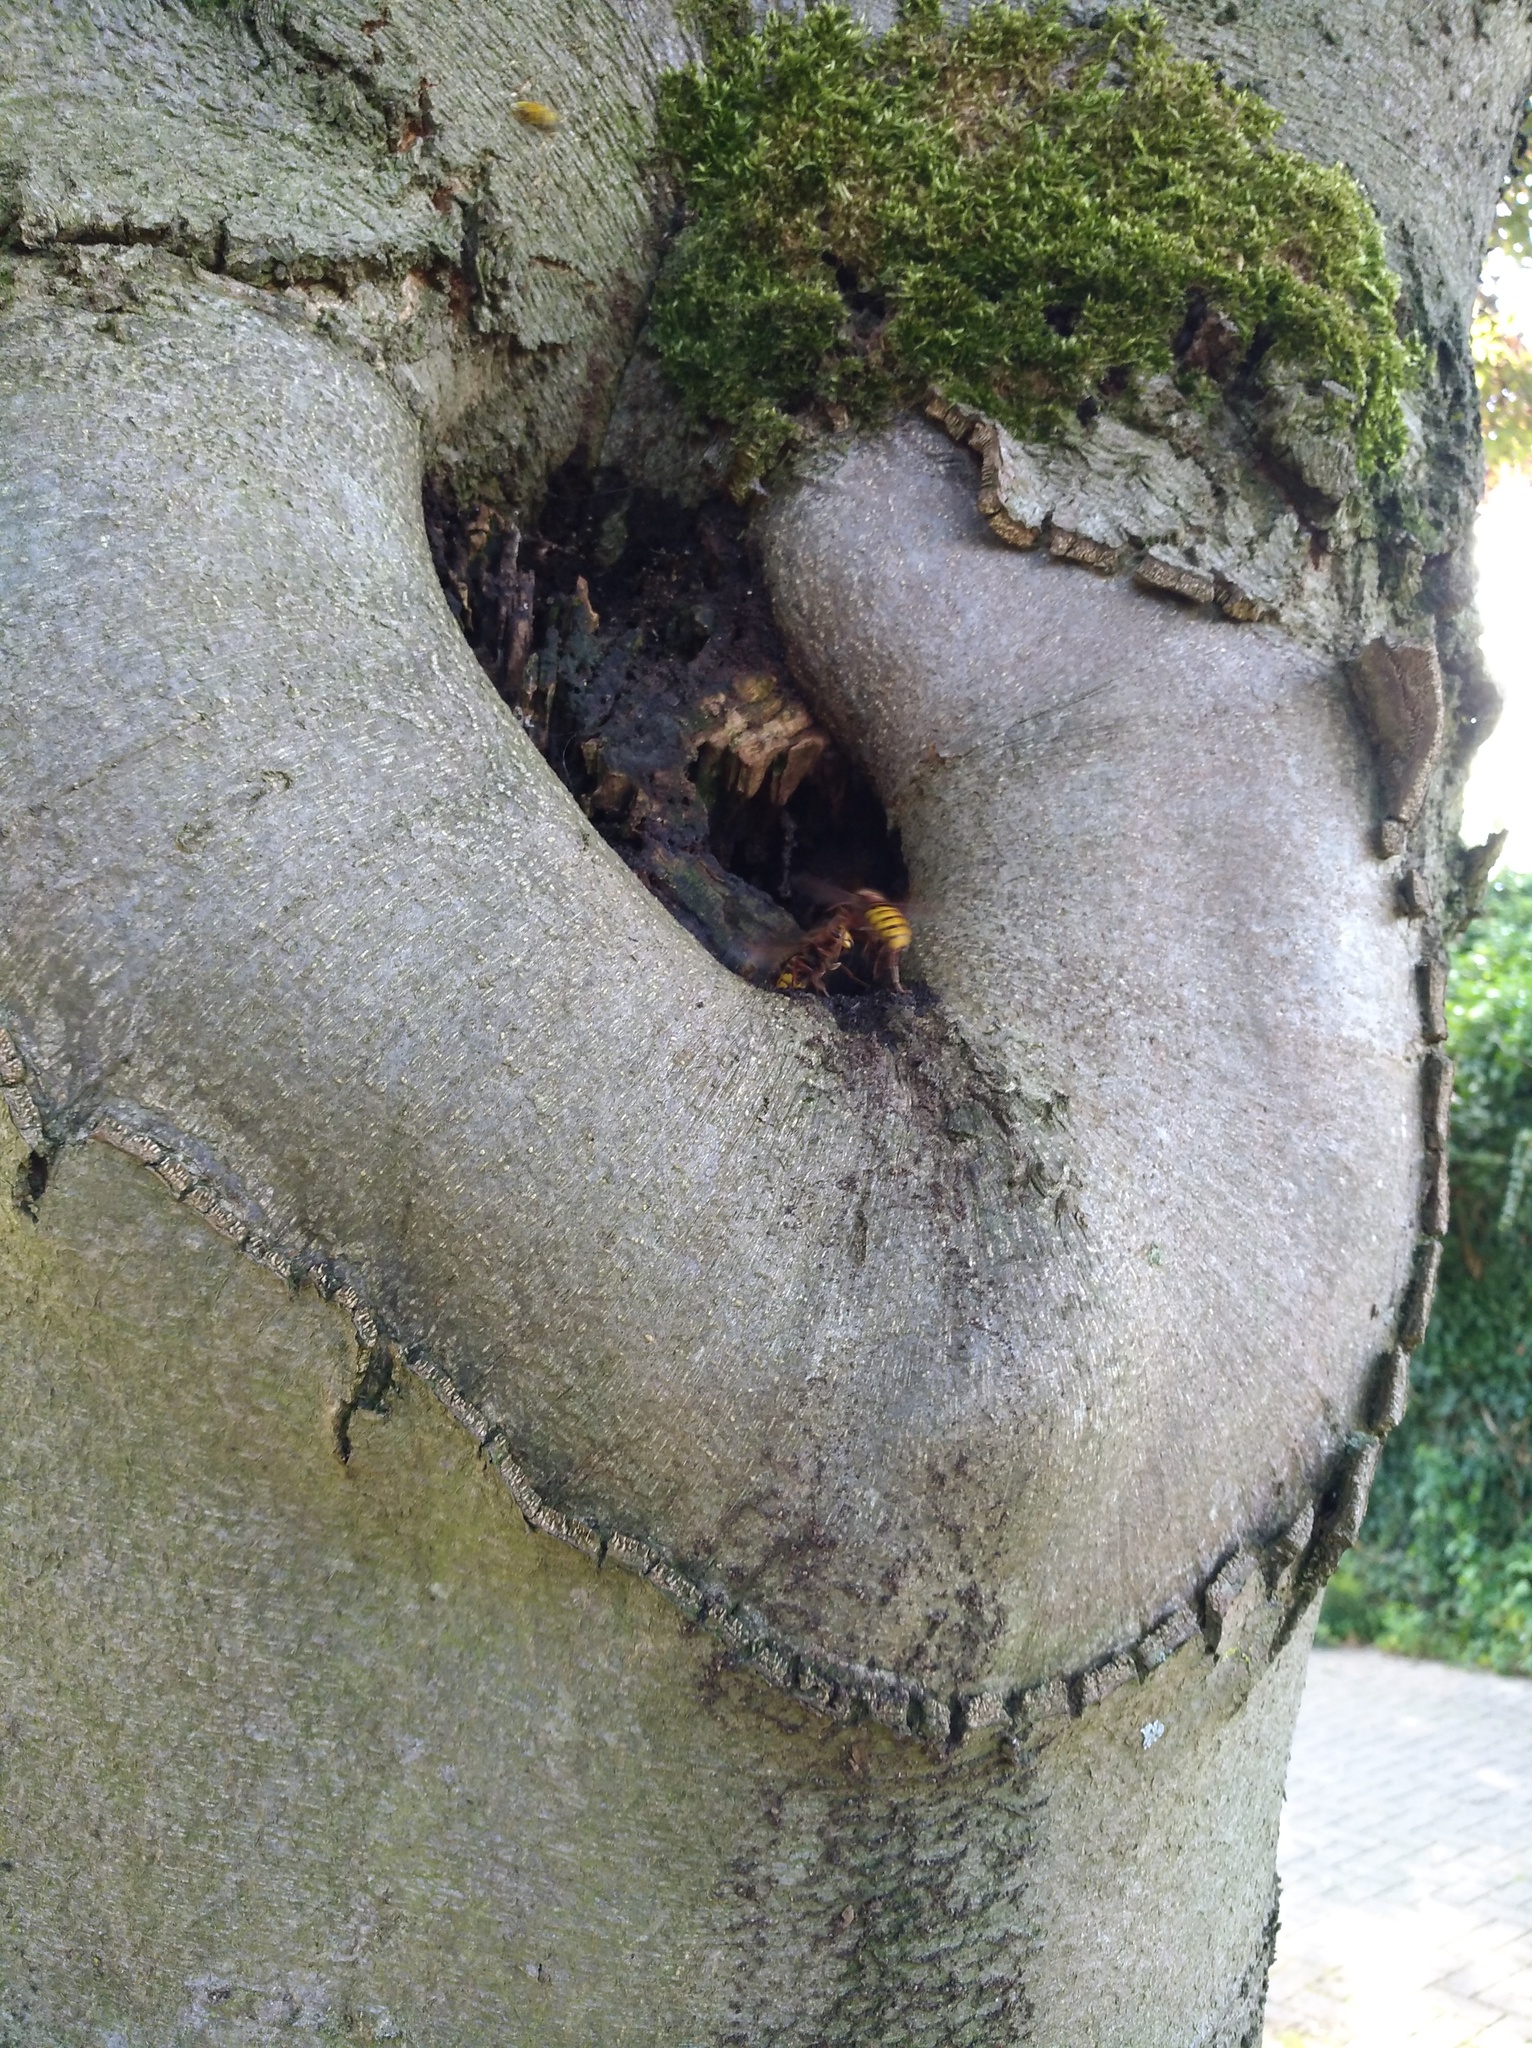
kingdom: Animalia
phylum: Arthropoda
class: Insecta
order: Hymenoptera
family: Vespidae
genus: Vespa
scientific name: Vespa crabro
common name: Hornet
